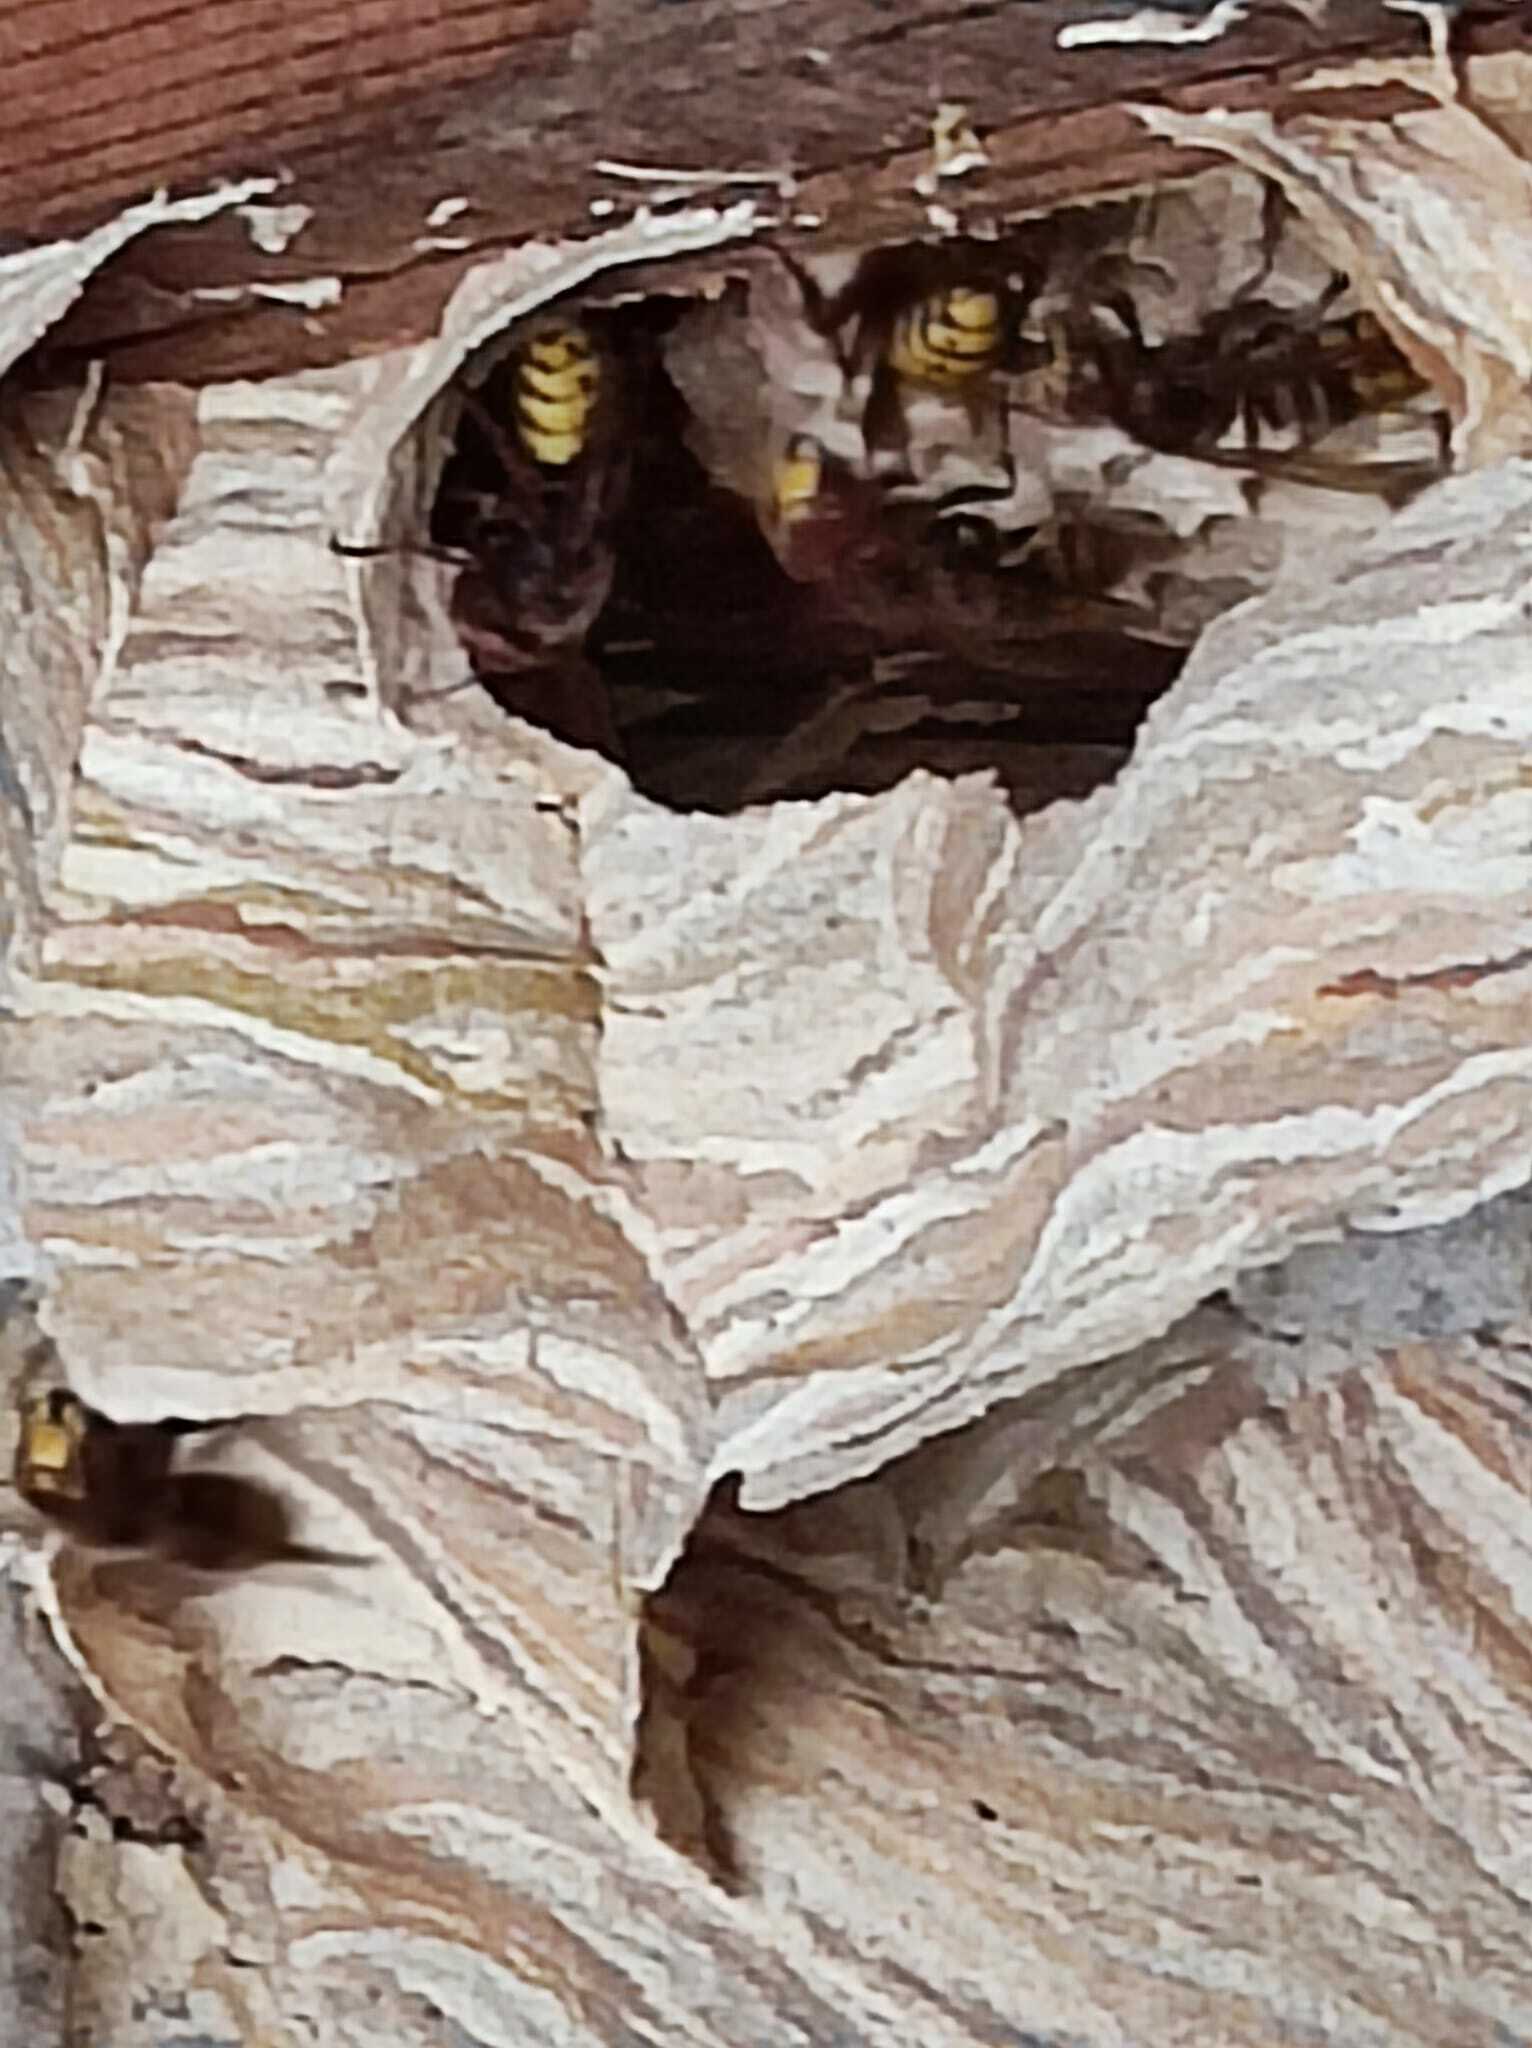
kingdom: Animalia
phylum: Arthropoda
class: Insecta
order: Hymenoptera
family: Vespidae
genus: Vespa
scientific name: Vespa crabro
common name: Hornet
